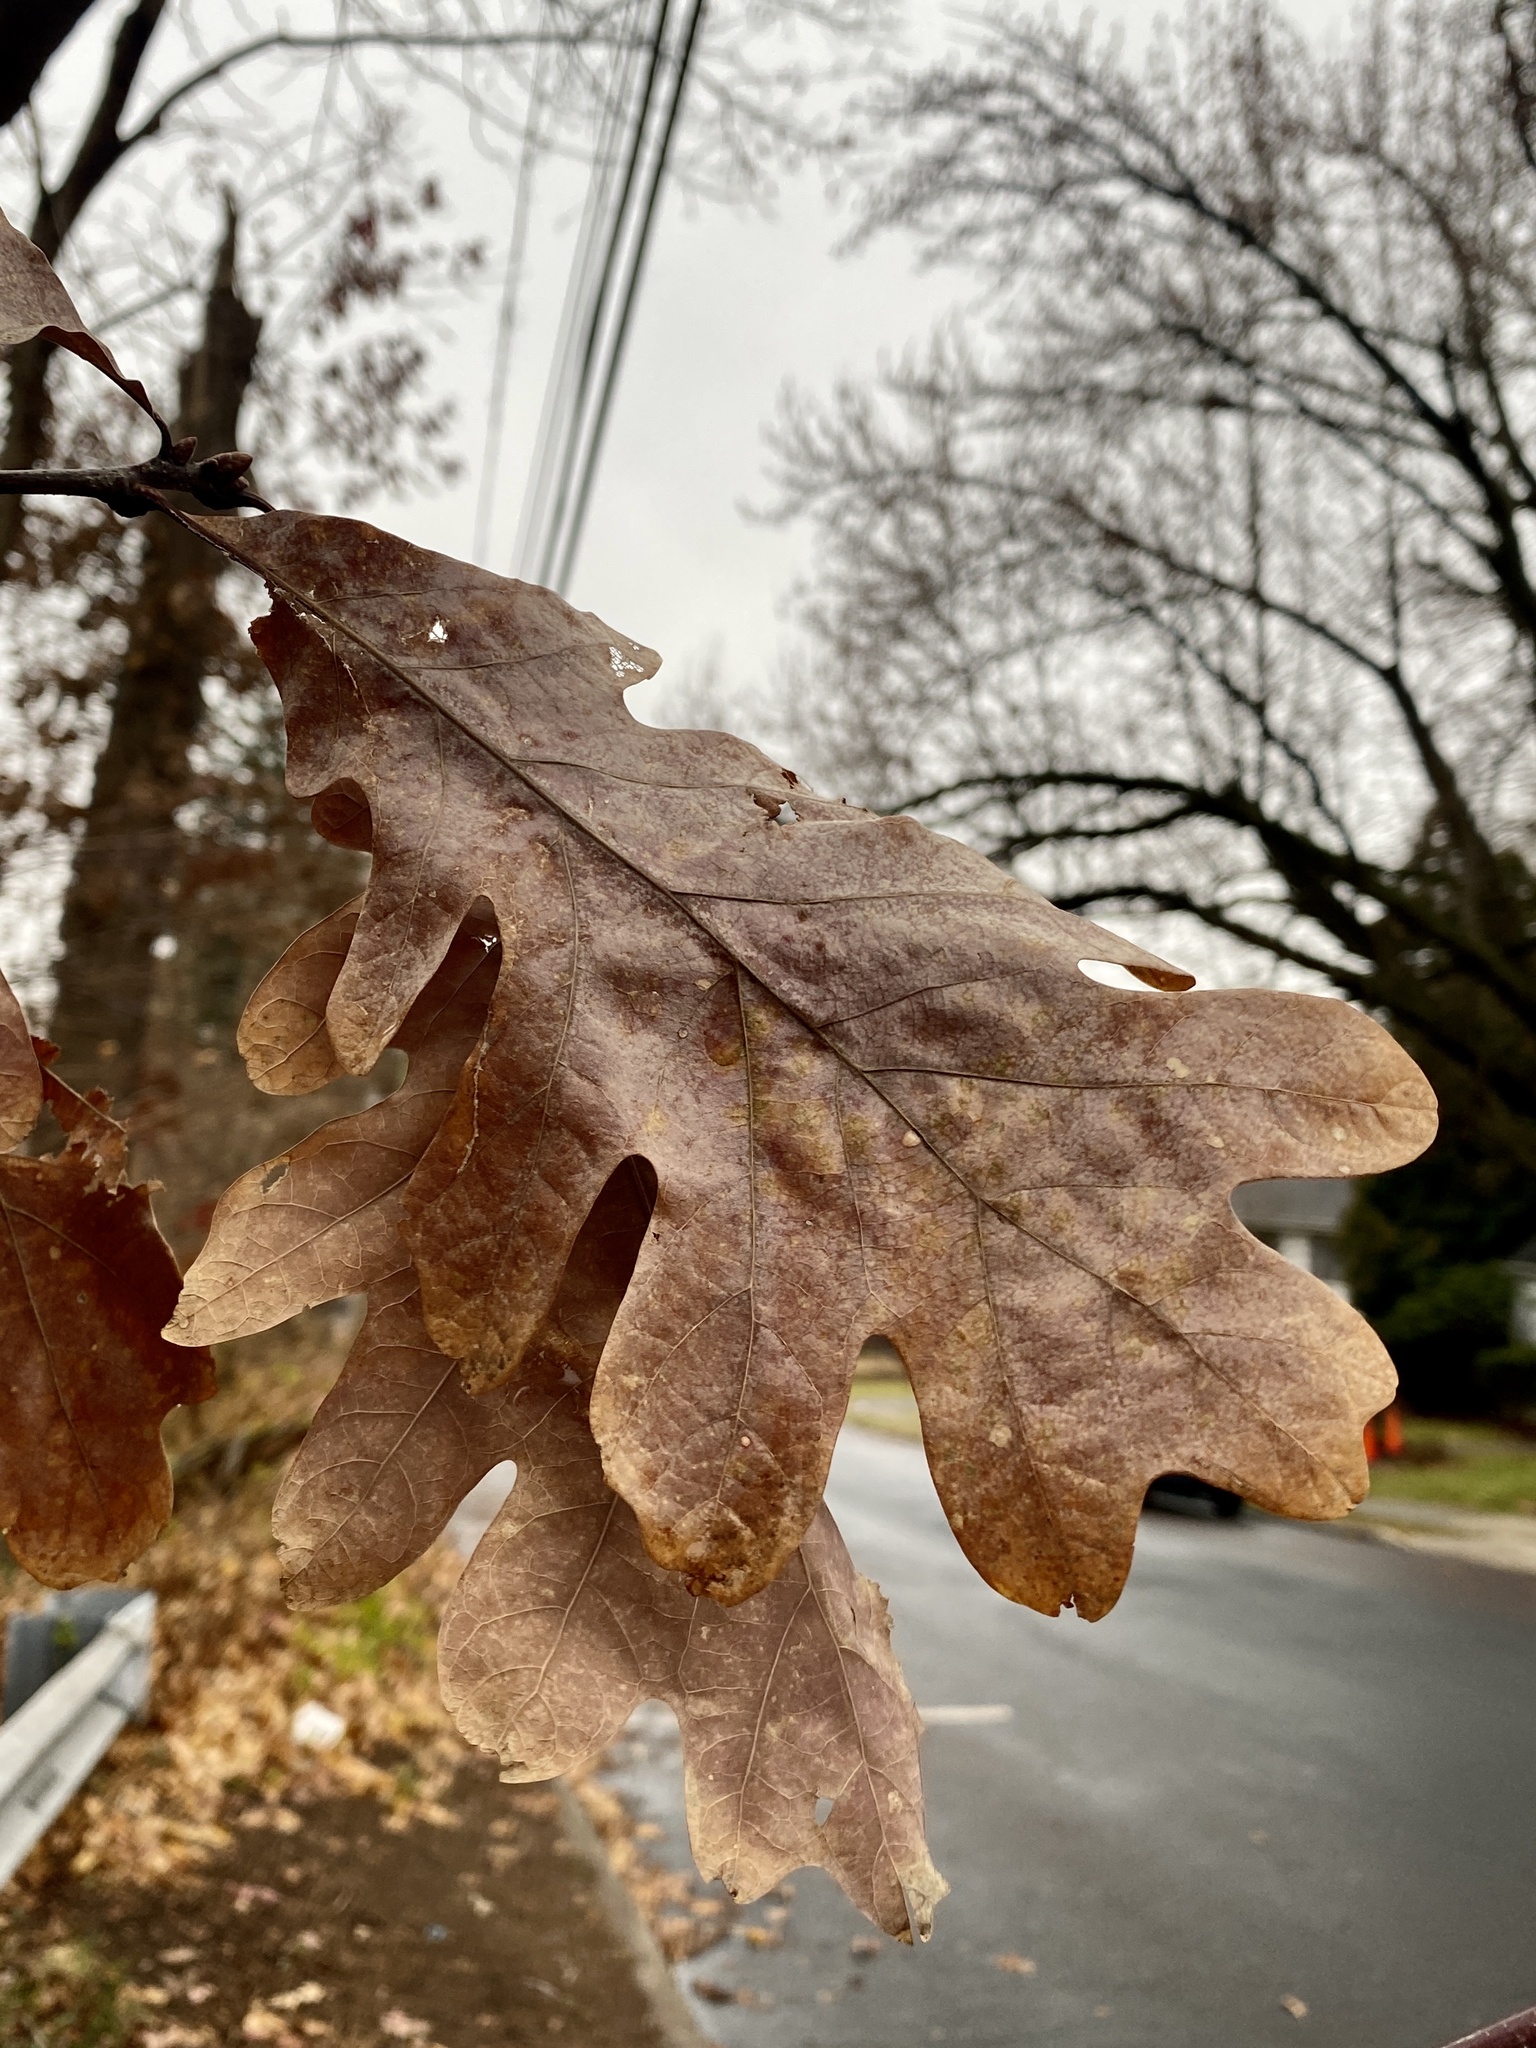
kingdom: Plantae
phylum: Tracheophyta
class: Magnoliopsida
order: Fagales
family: Fagaceae
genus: Quercus
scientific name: Quercus alba
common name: White oak
